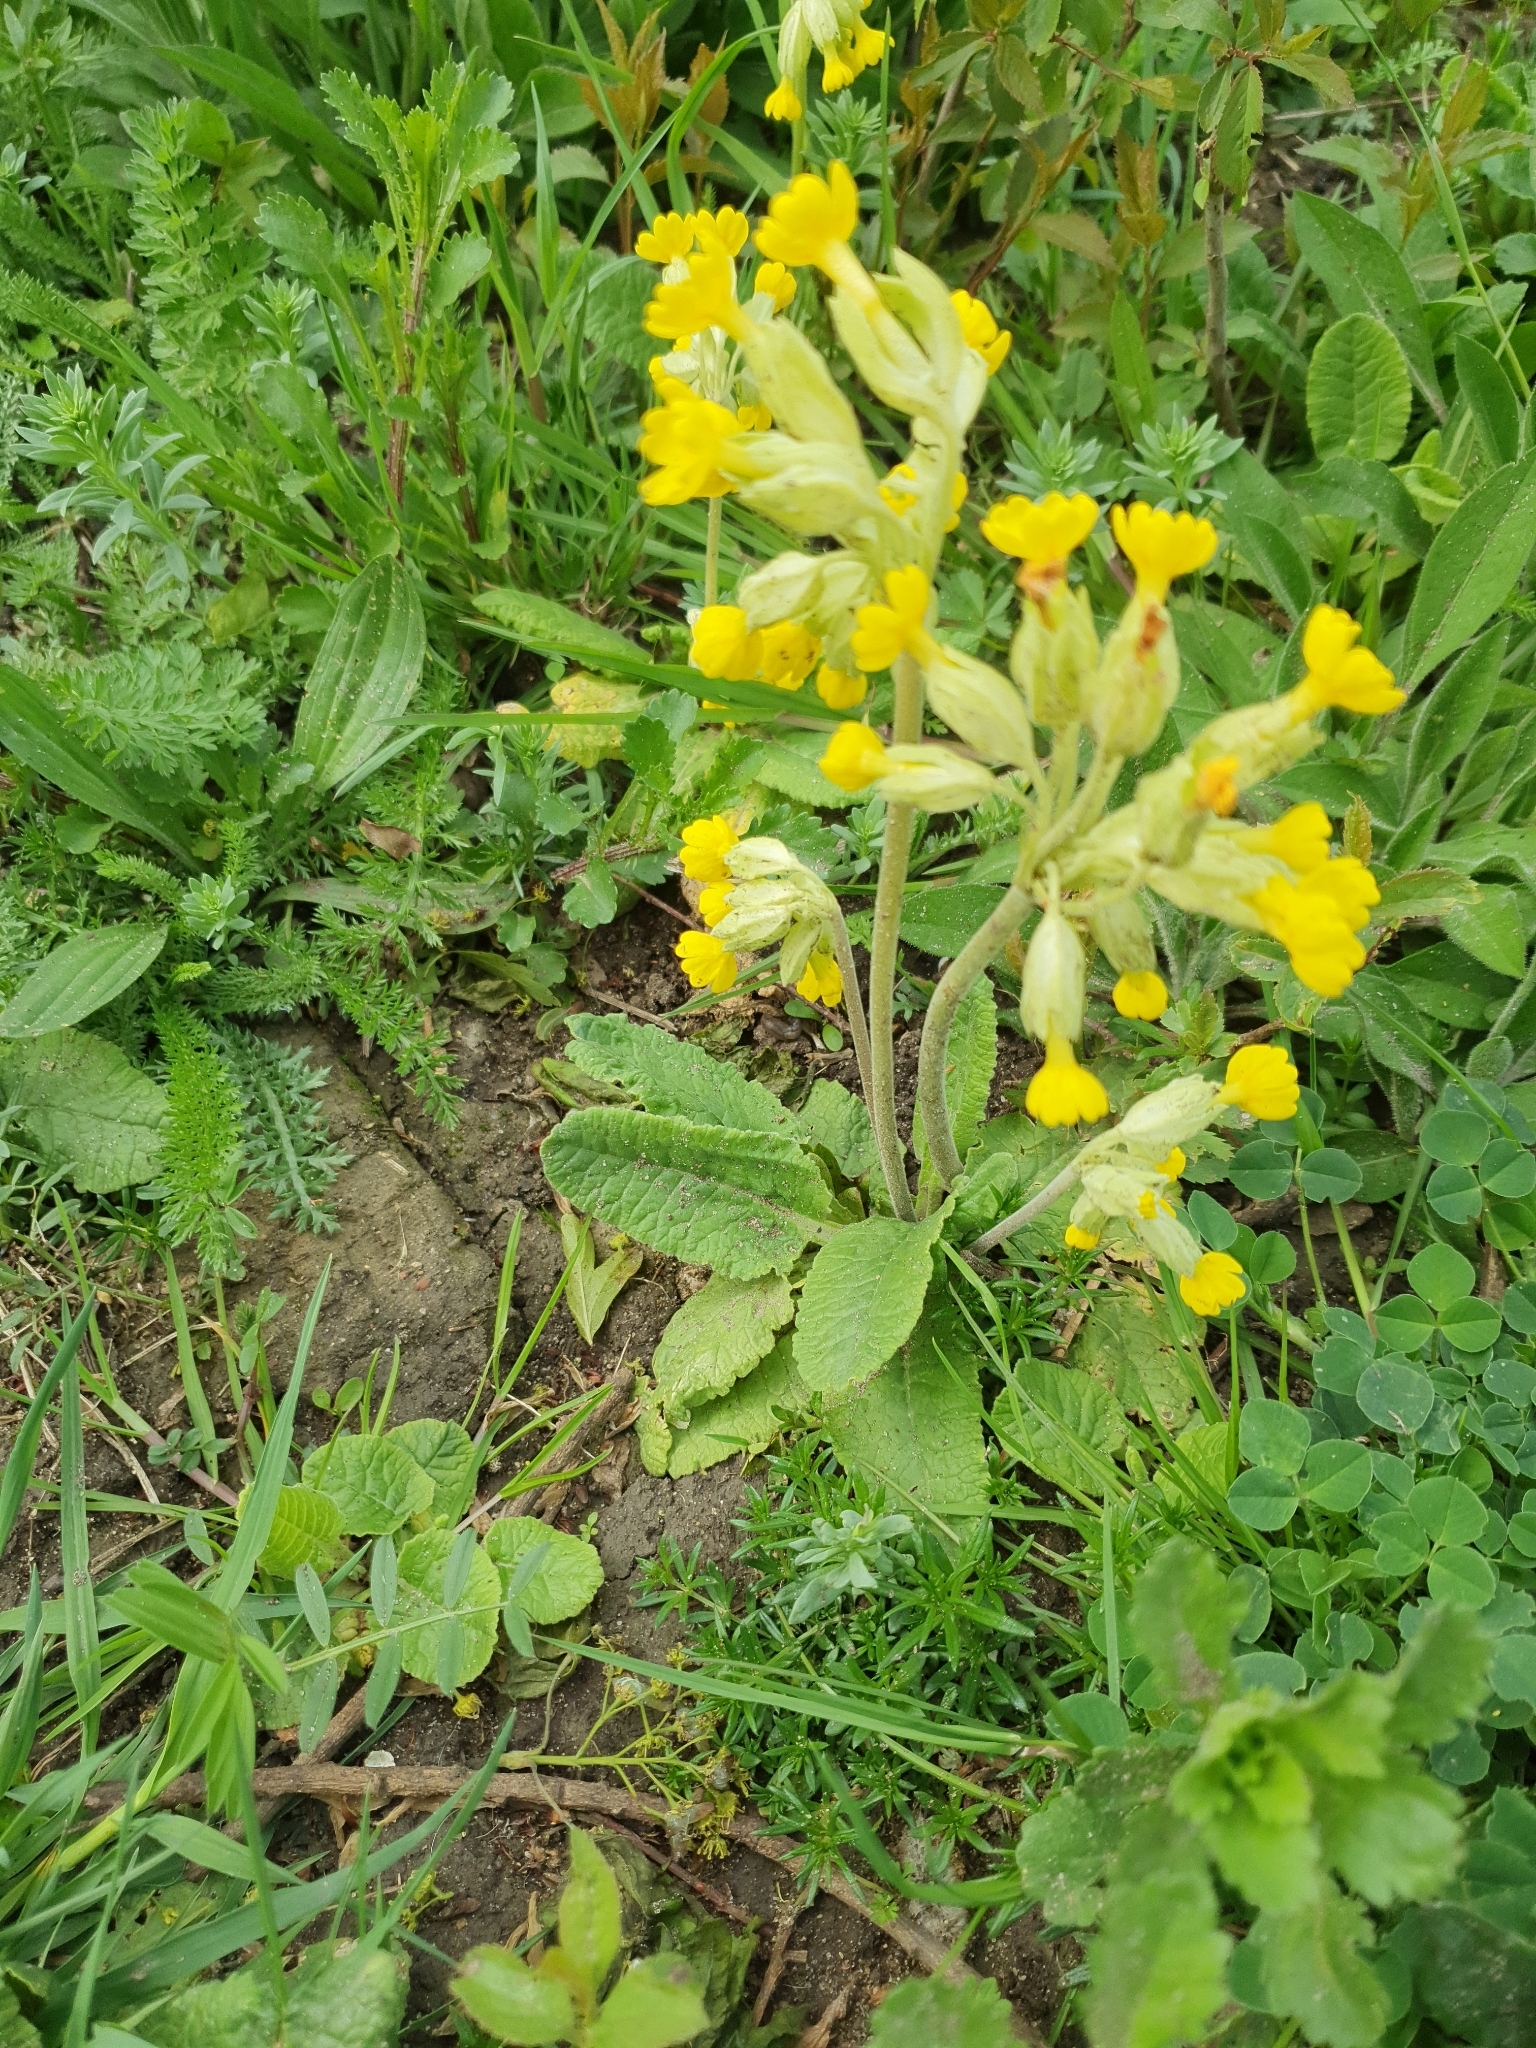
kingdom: Plantae
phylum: Tracheophyta
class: Magnoliopsida
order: Ericales
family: Primulaceae
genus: Primula
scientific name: Primula veris
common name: Cowslip
